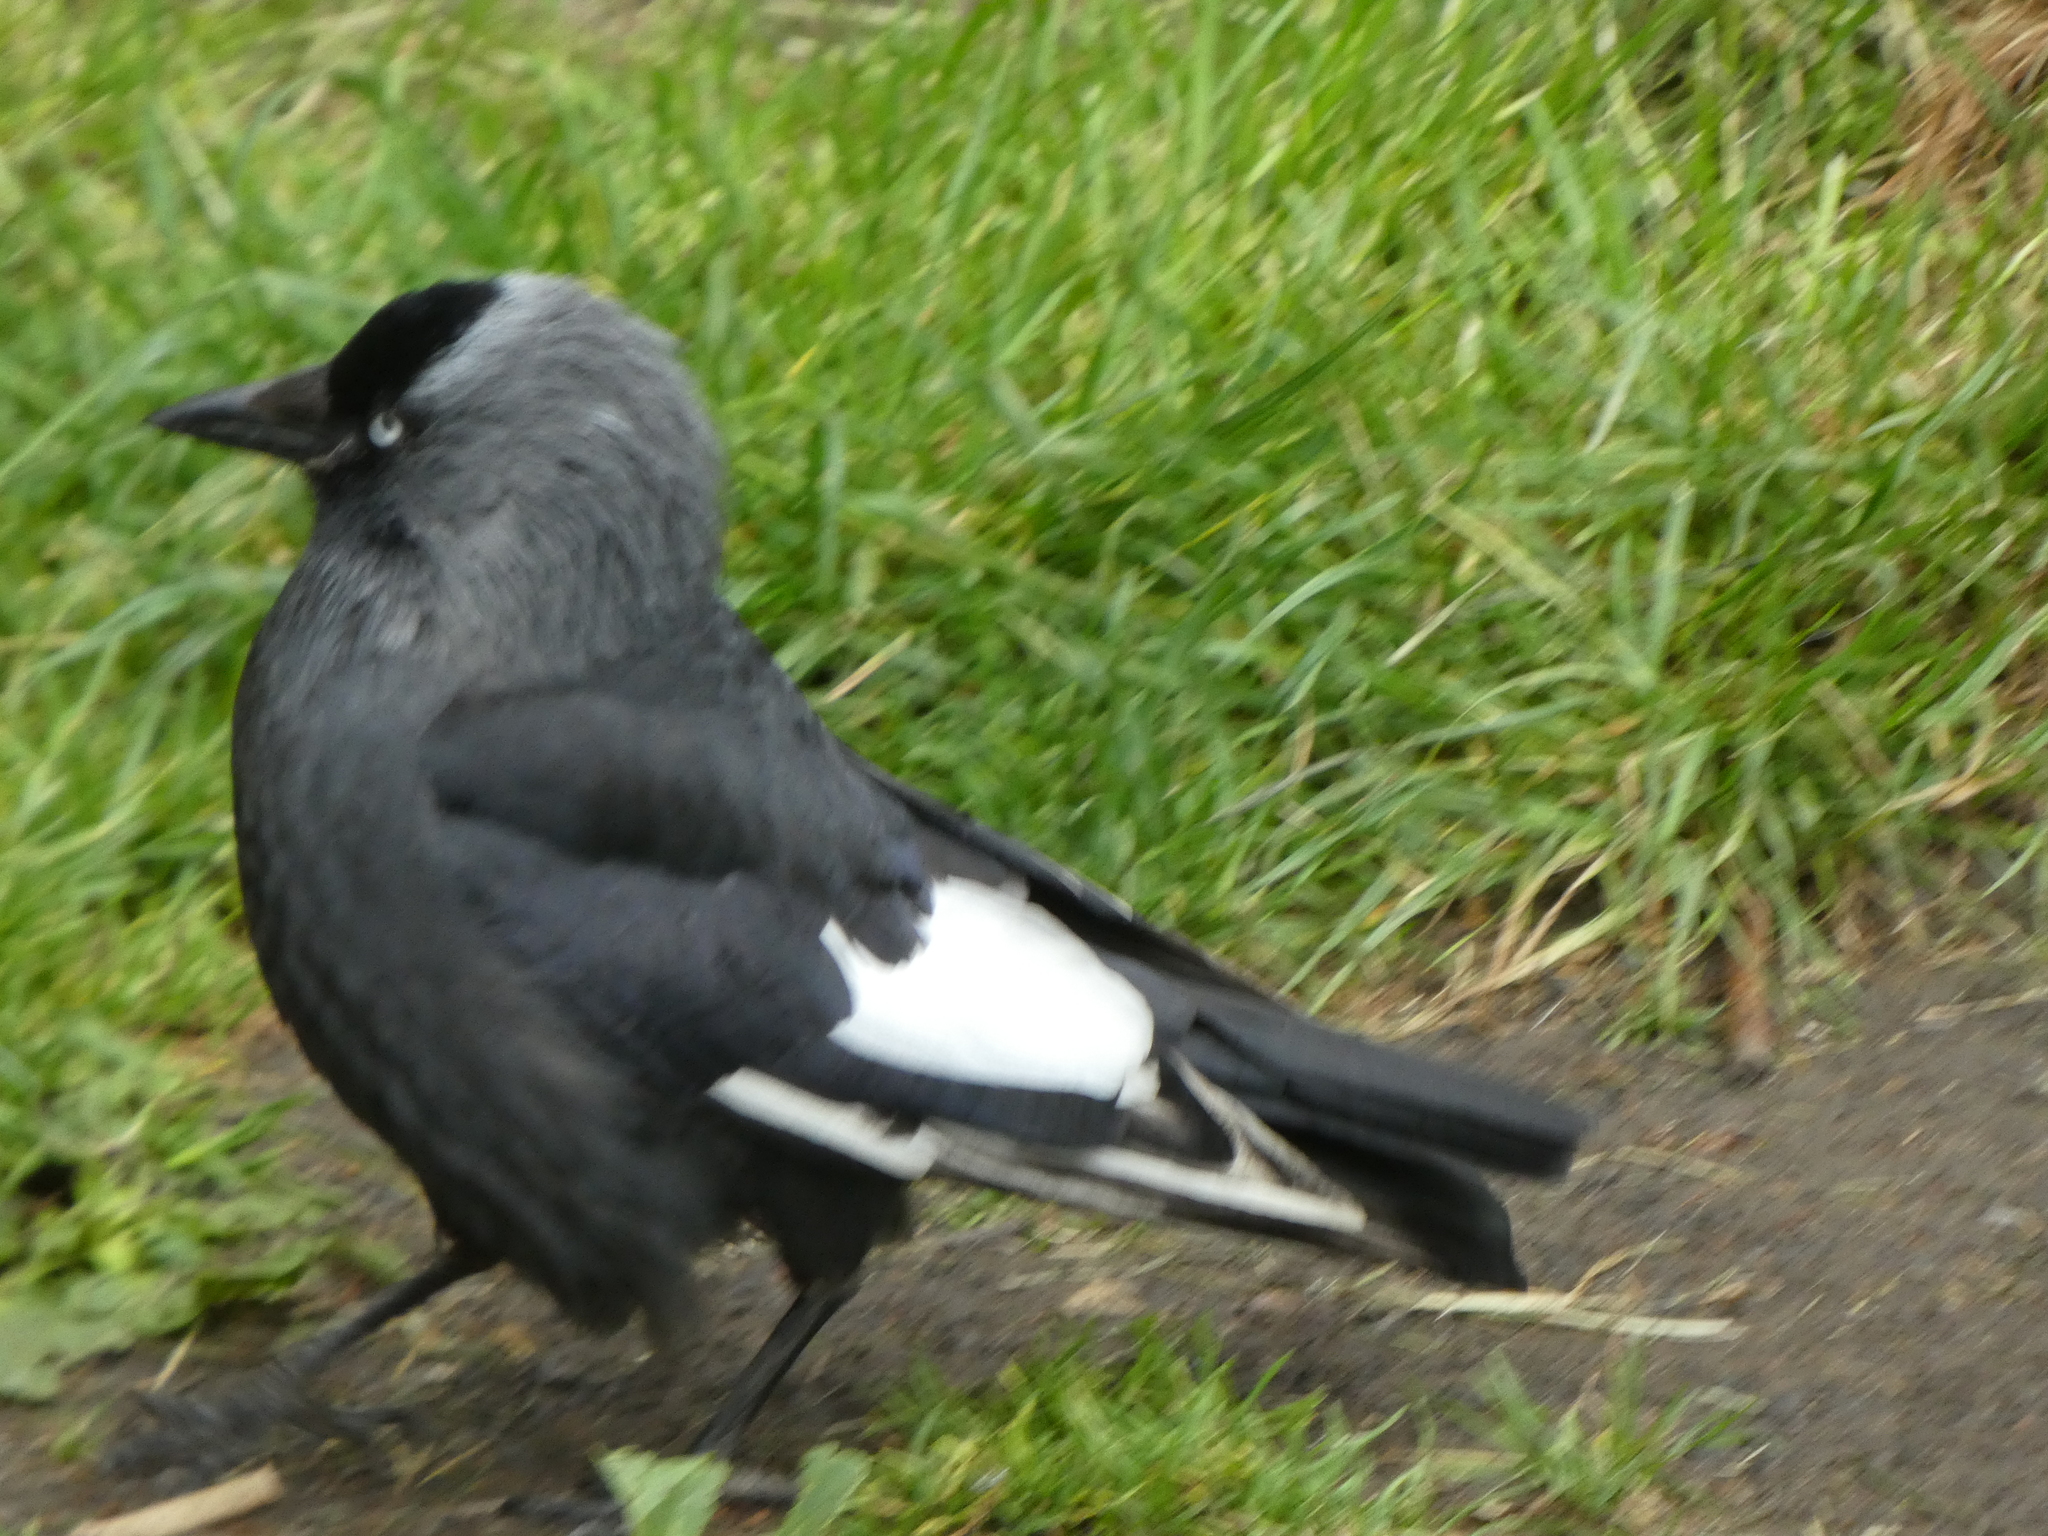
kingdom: Animalia
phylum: Chordata
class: Aves
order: Passeriformes
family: Corvidae
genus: Coloeus
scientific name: Coloeus monedula
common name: Western jackdaw
